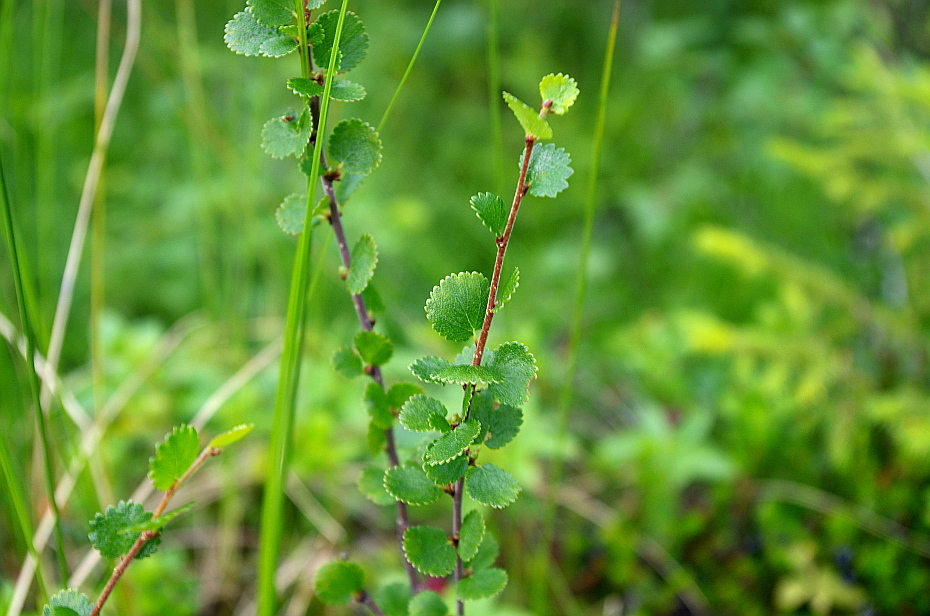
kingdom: Plantae
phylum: Tracheophyta
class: Magnoliopsida
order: Fagales
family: Betulaceae
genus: Betula
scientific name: Betula nana
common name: Arctic dwarf birch
